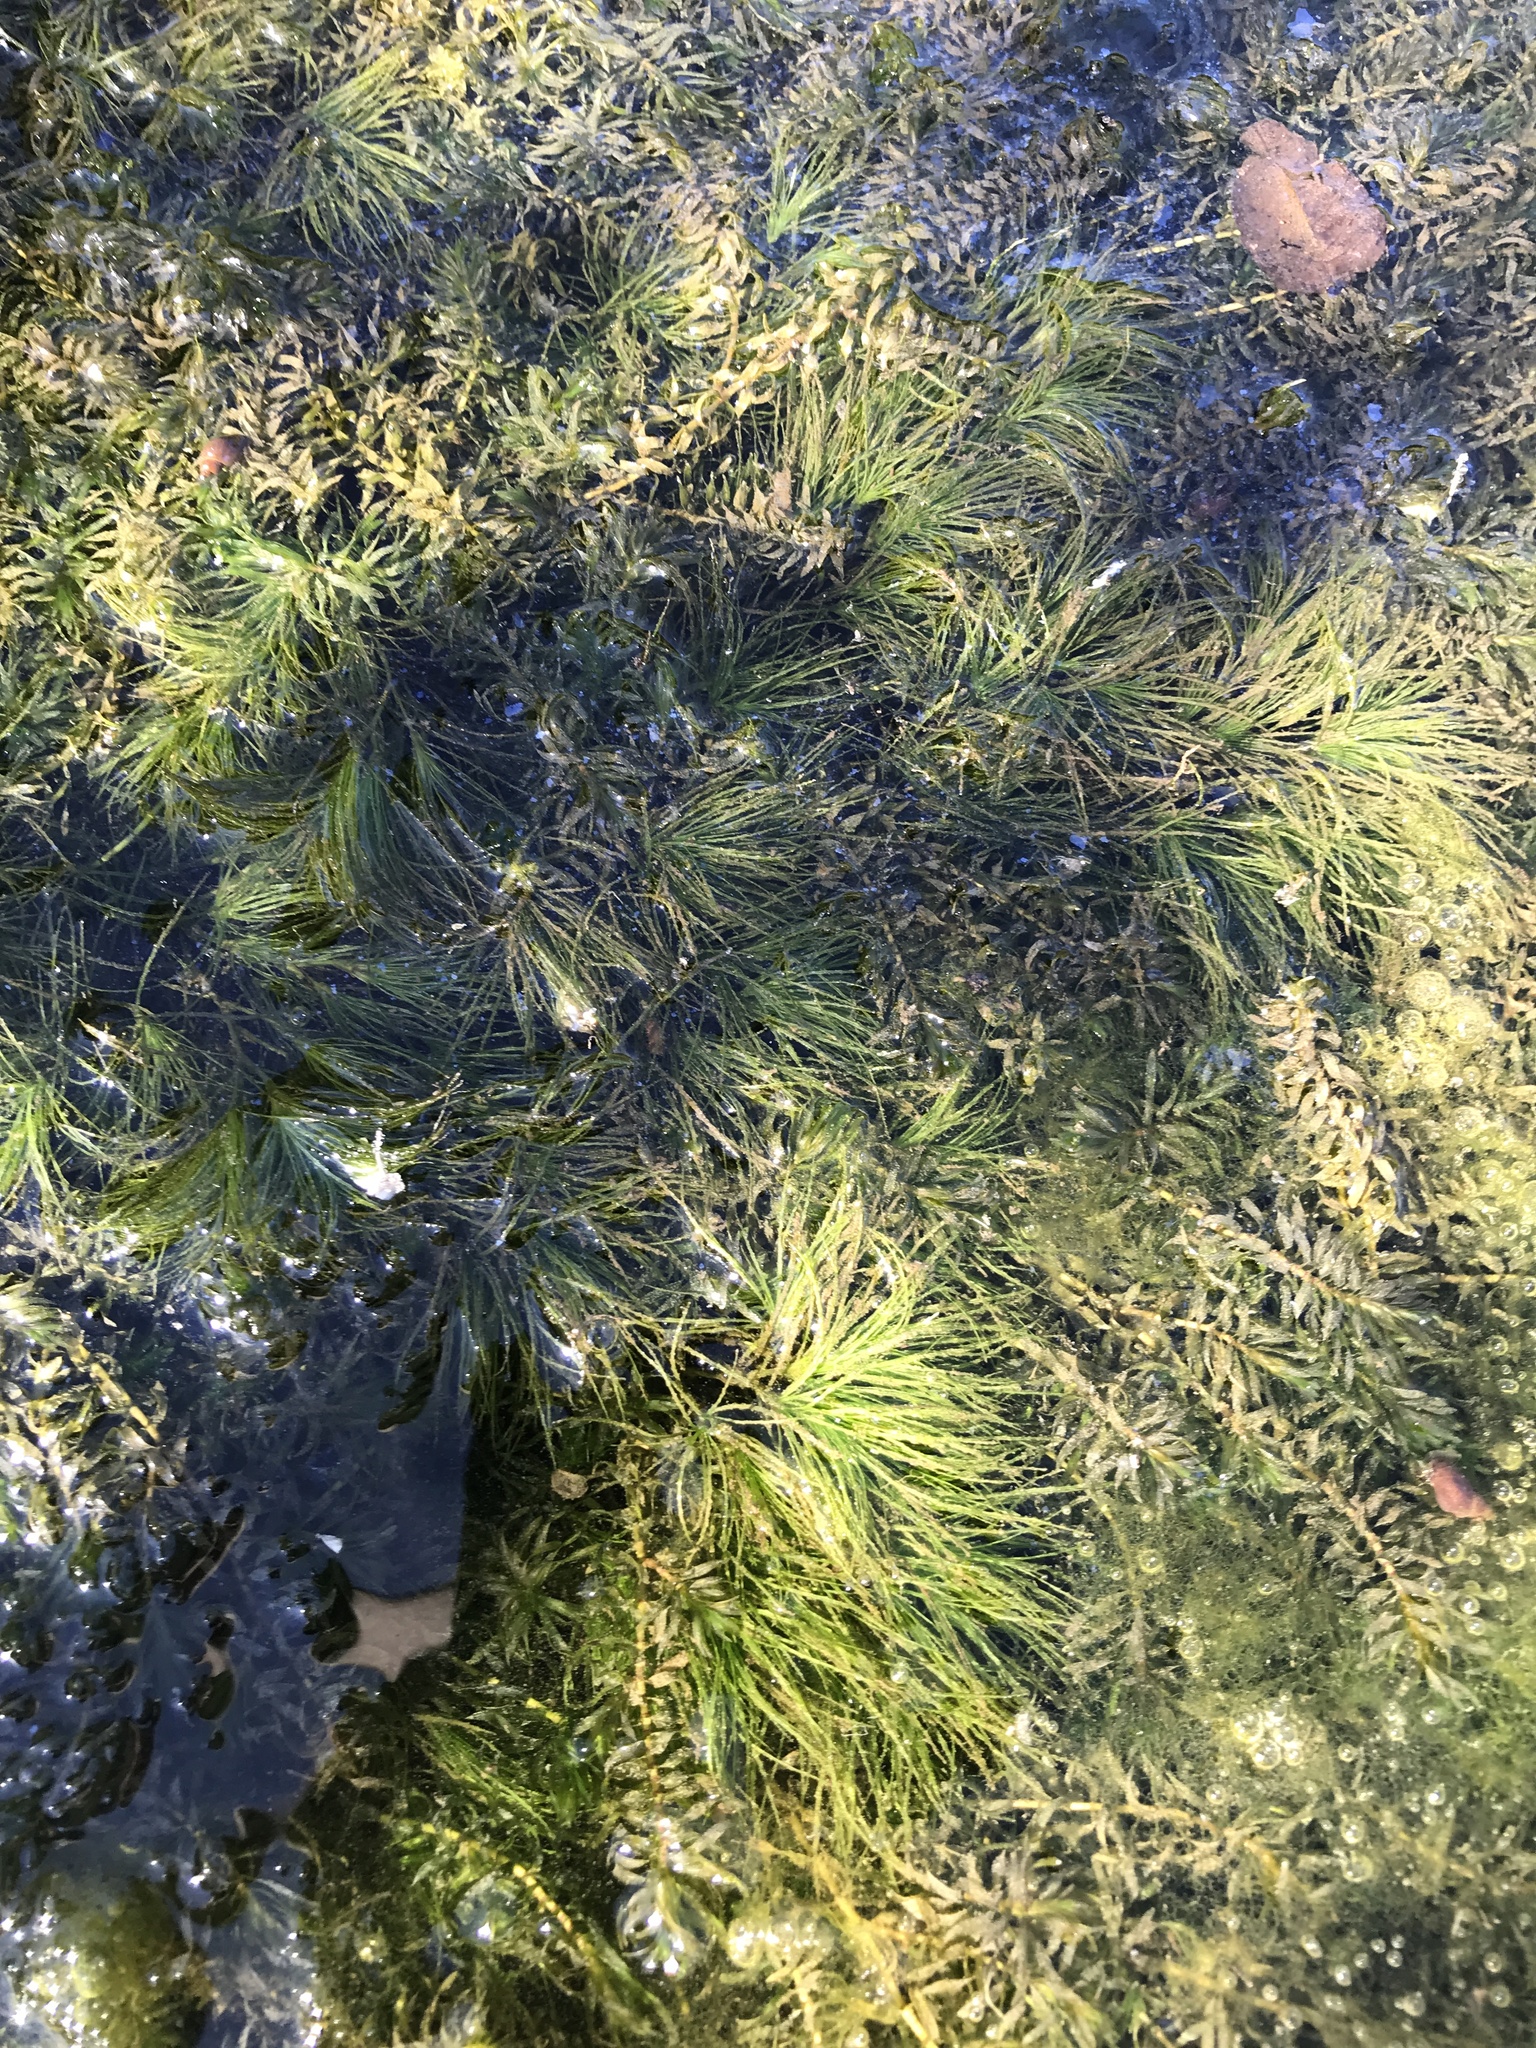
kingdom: Plantae
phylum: Tracheophyta
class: Liliopsida
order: Alismatales
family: Hydrocharitaceae
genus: Najas
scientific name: Najas minor
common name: Brittle naiad
